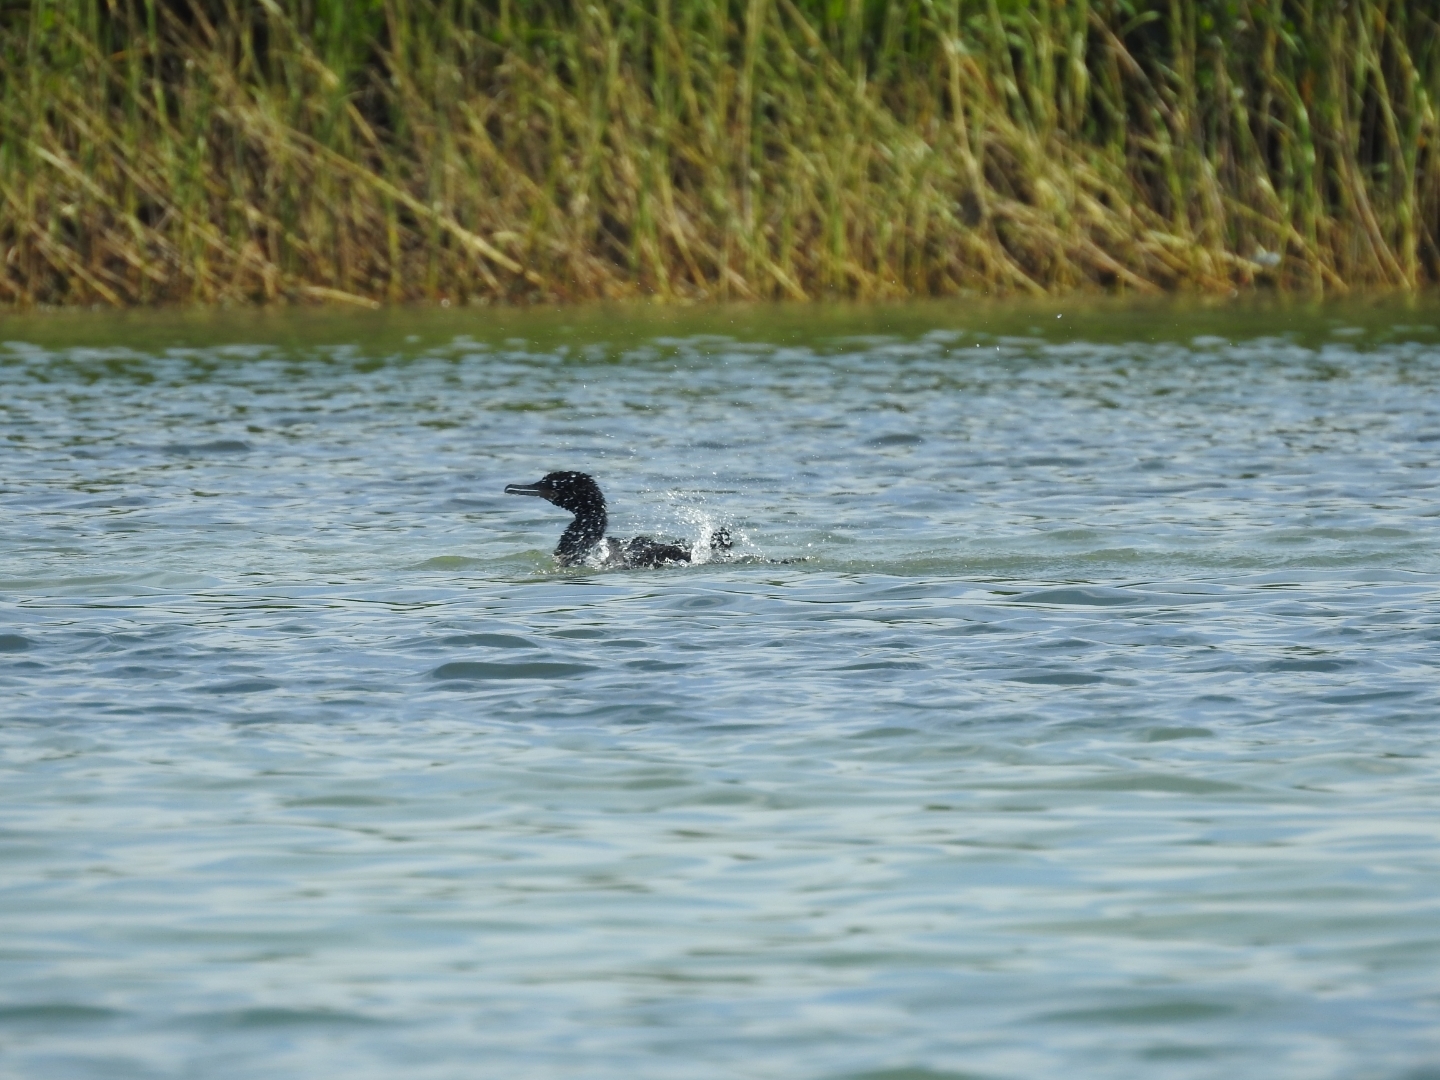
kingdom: Animalia
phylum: Chordata
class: Aves
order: Suliformes
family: Phalacrocoracidae
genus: Phalacrocorax
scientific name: Phalacrocorax brasilianus
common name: Neotropic cormorant
